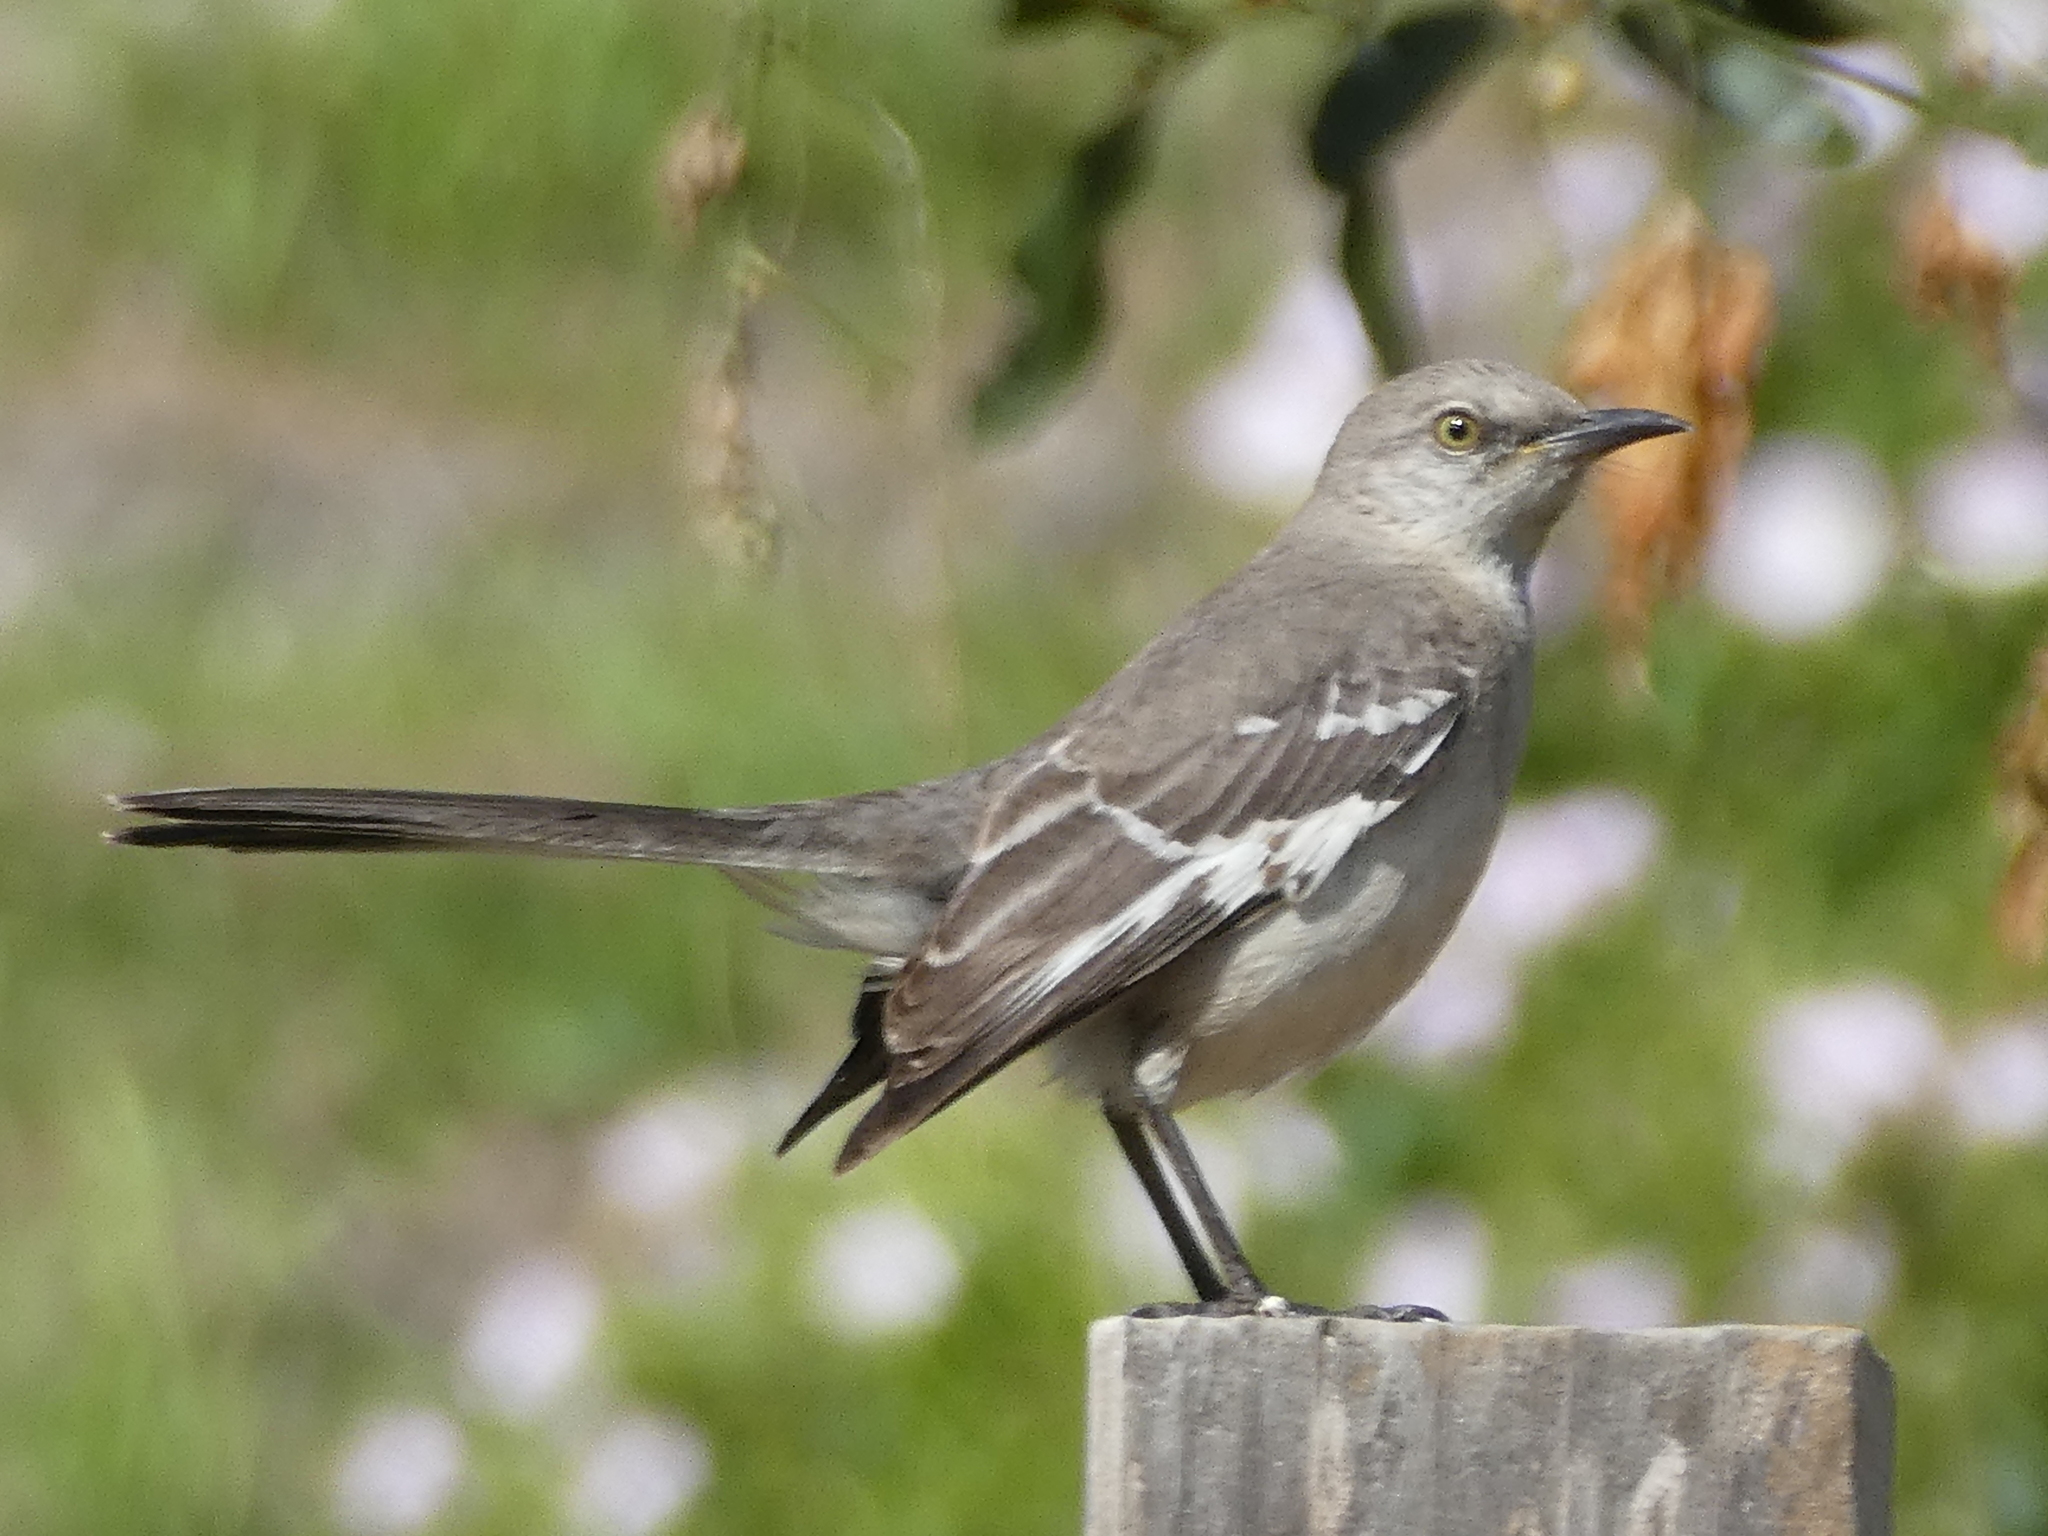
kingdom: Animalia
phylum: Chordata
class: Aves
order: Passeriformes
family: Mimidae
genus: Mimus
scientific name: Mimus polyglottos
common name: Northern mockingbird
